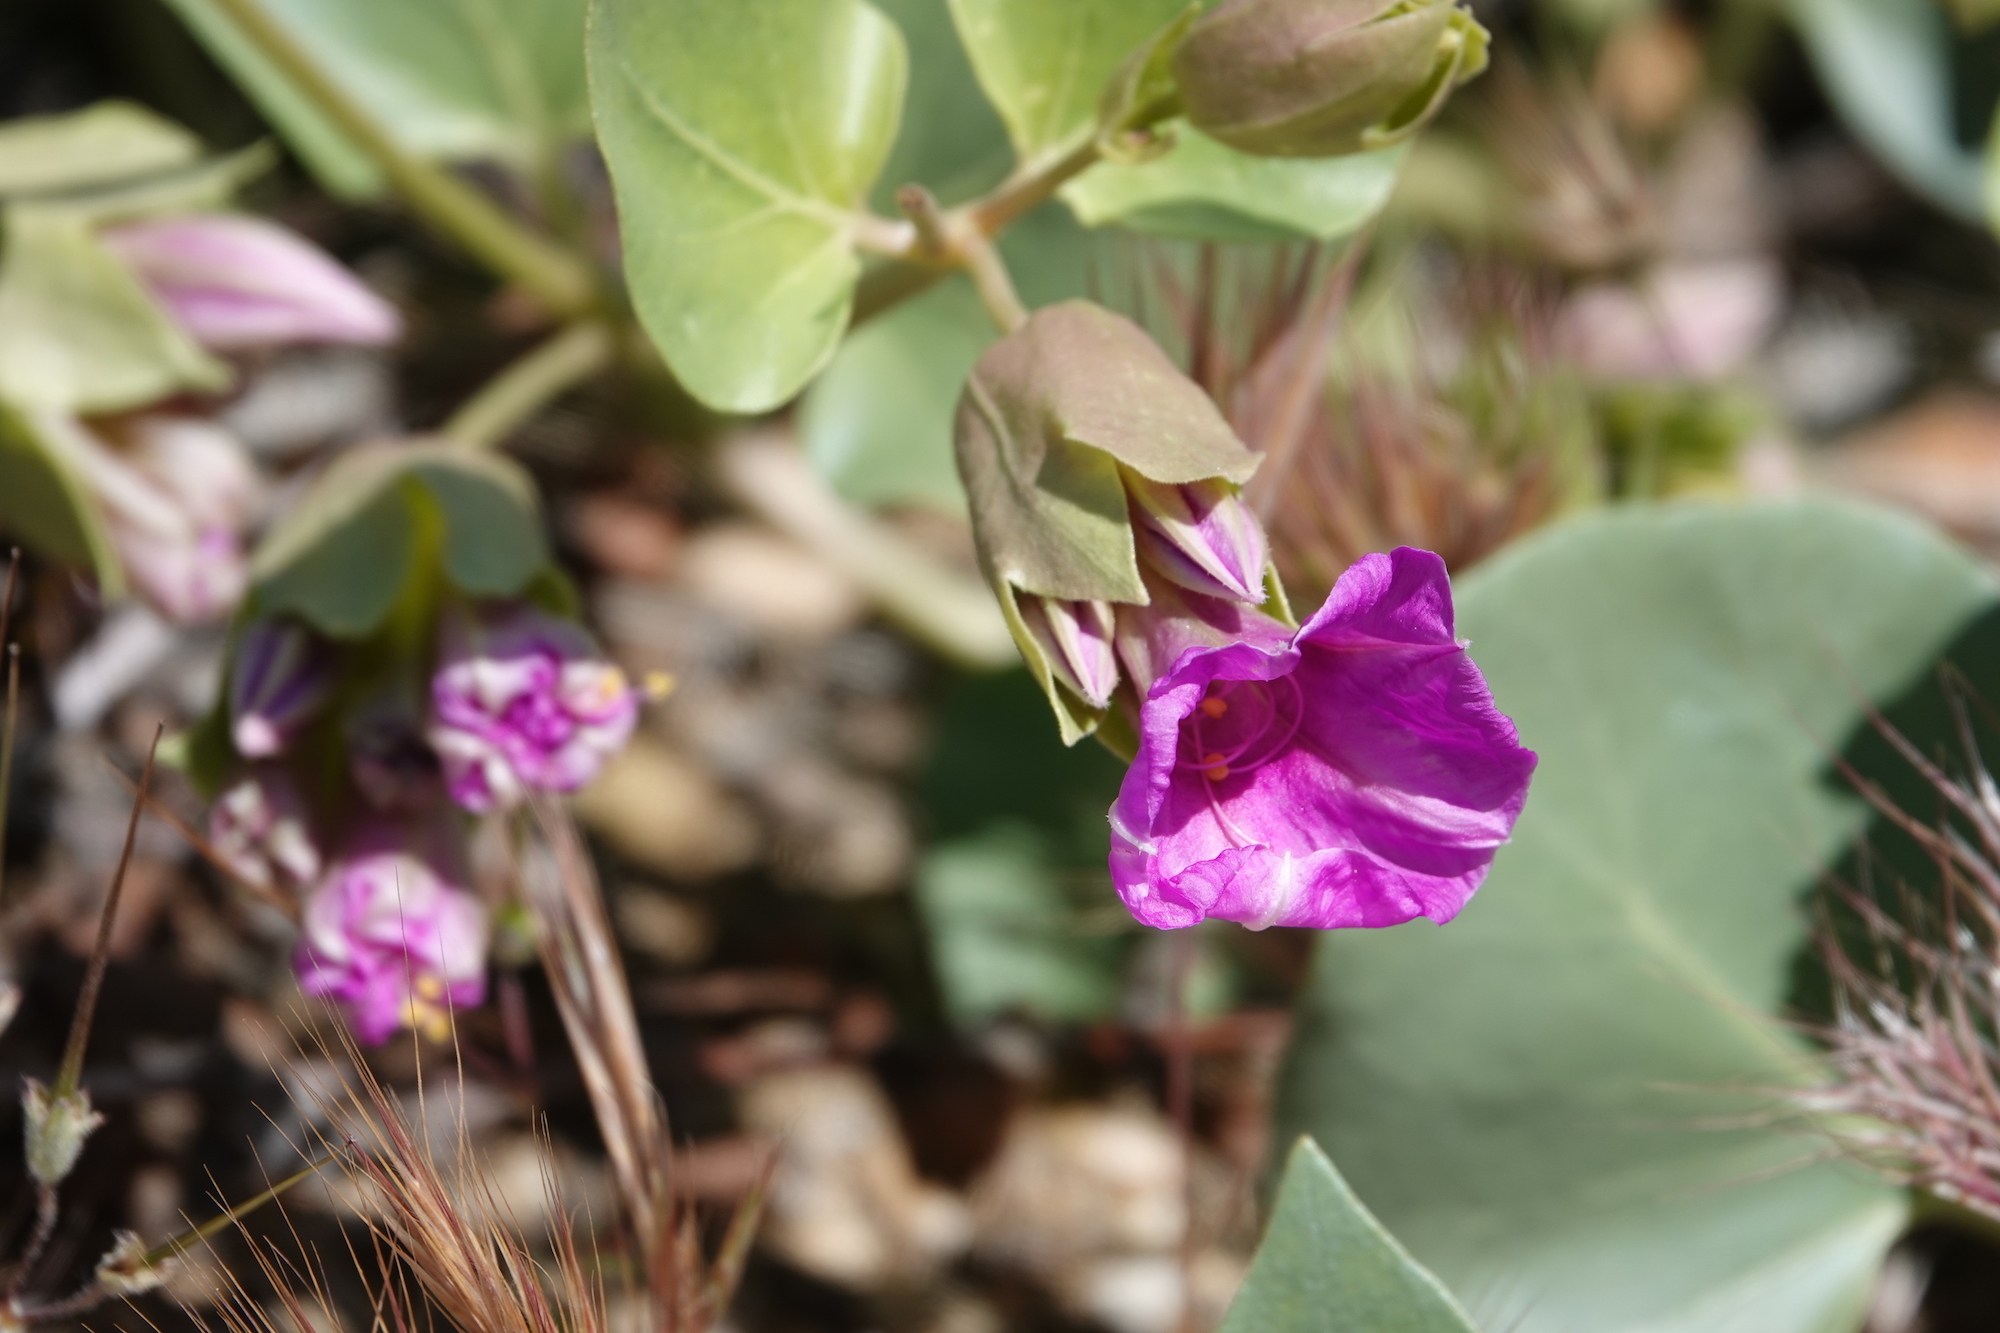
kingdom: Plantae
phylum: Tracheophyta
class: Magnoliopsida
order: Caryophyllales
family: Nyctaginaceae
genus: Mirabilis
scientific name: Mirabilis multiflora
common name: Froebel's four-o'clock
